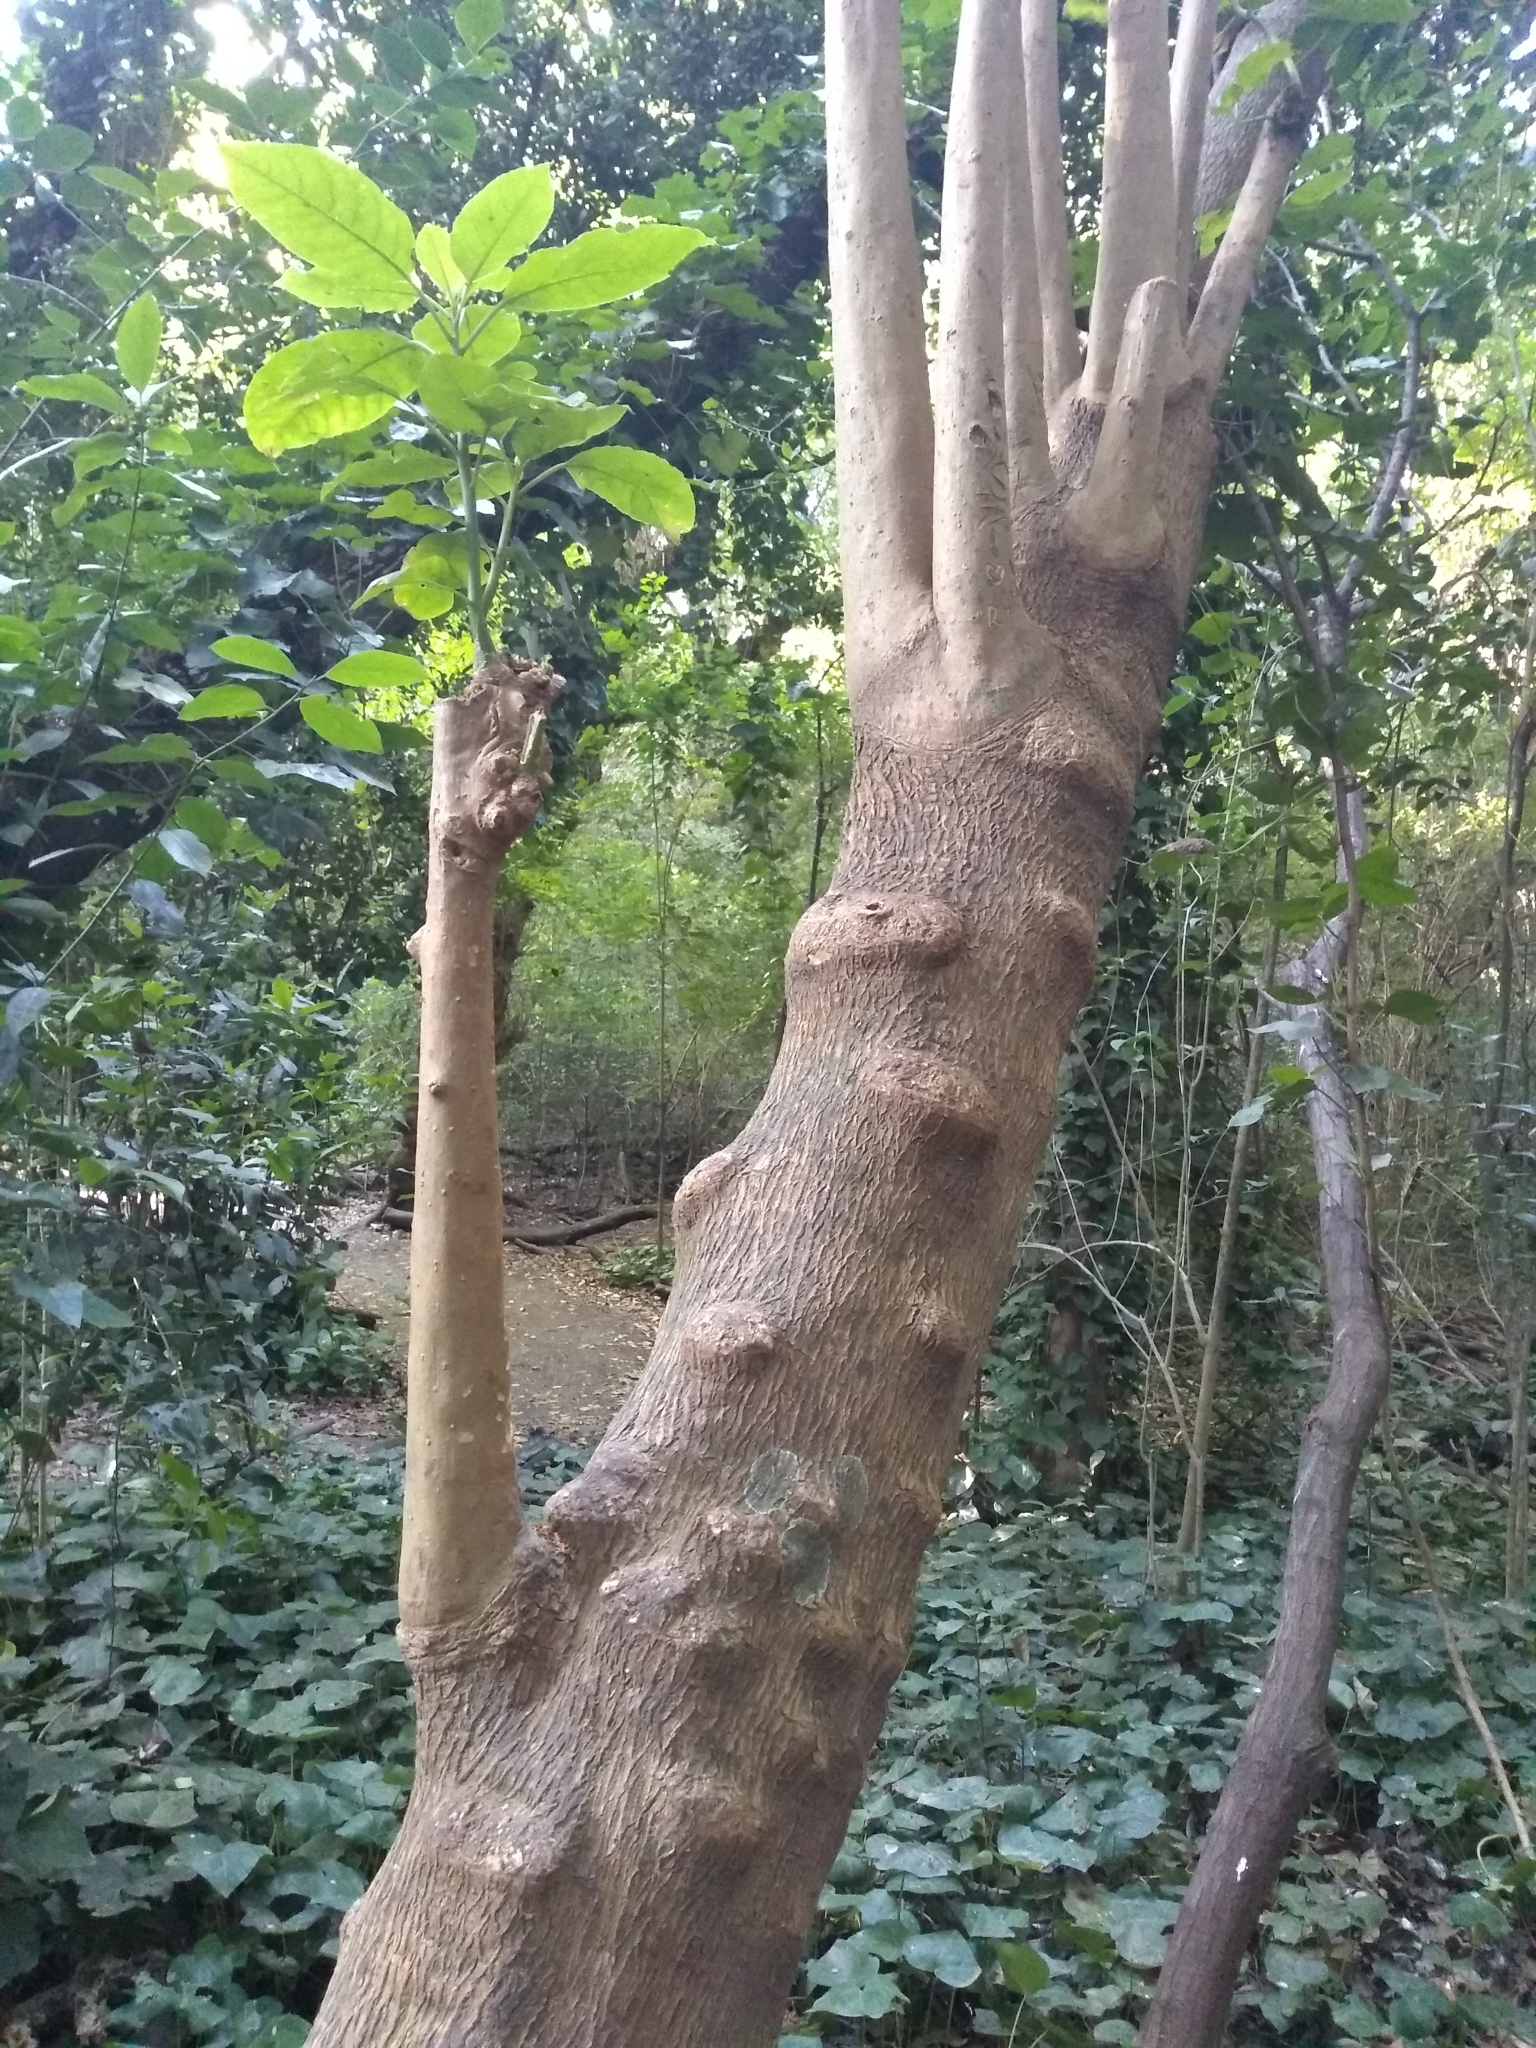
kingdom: Plantae
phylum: Tracheophyta
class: Magnoliopsida
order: Caryophyllales
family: Phytolaccaceae
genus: Phytolacca
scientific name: Phytolacca dioica
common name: Pokeweed
